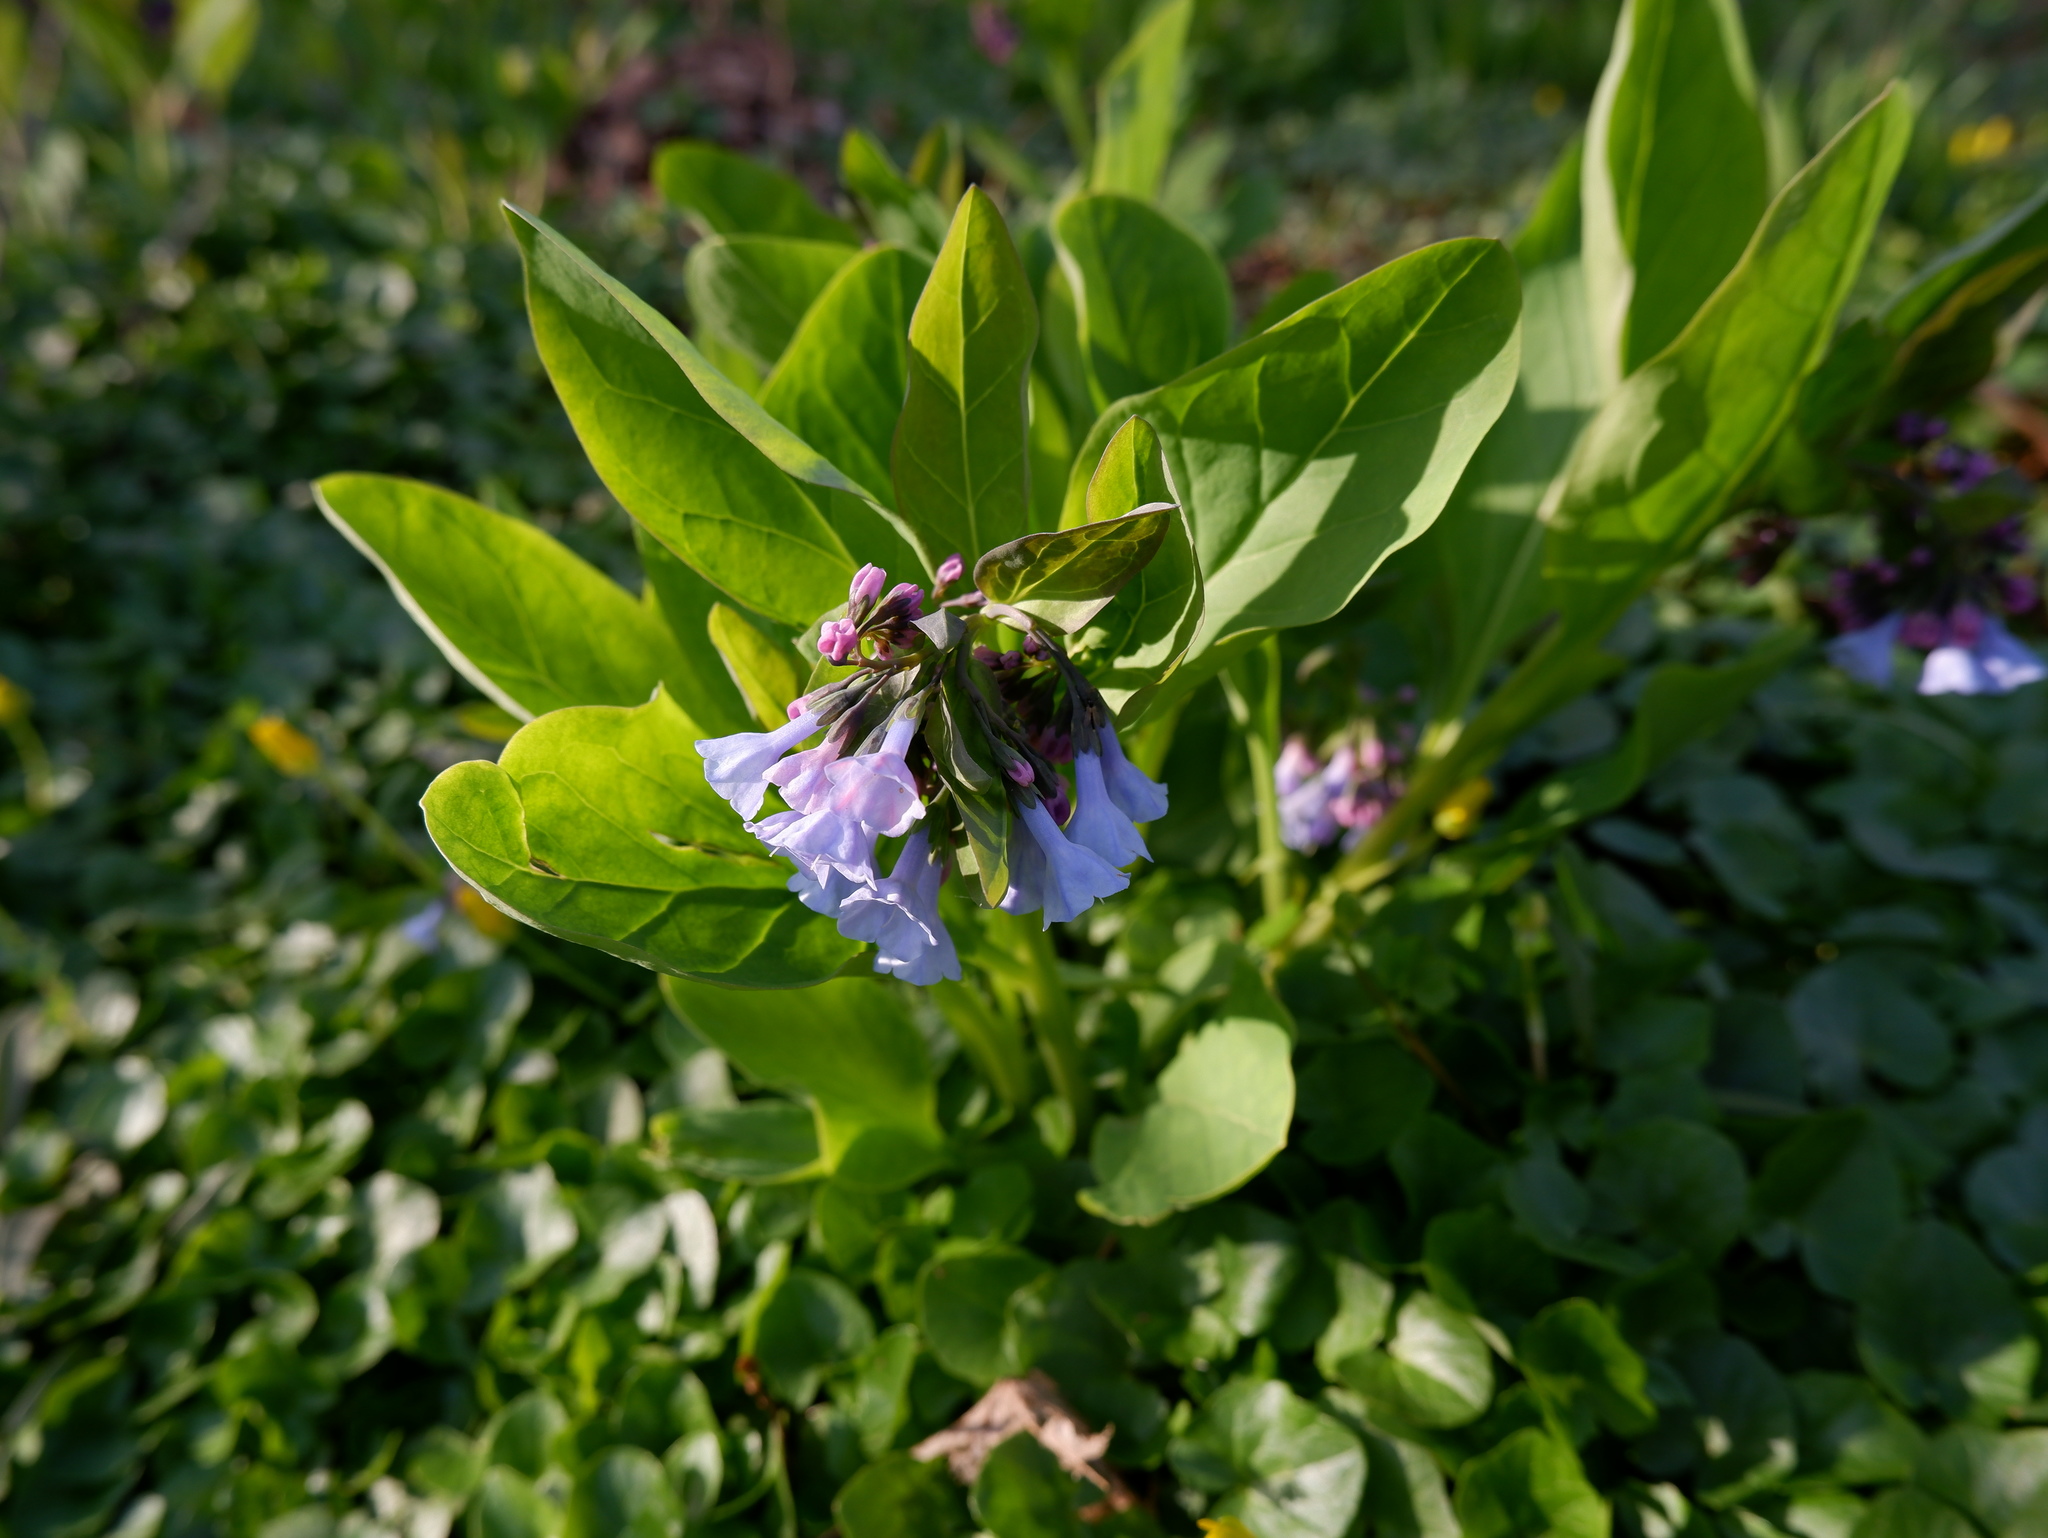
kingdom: Plantae
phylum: Tracheophyta
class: Magnoliopsida
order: Boraginales
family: Boraginaceae
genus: Mertensia
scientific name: Mertensia virginica
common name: Virginia bluebells
